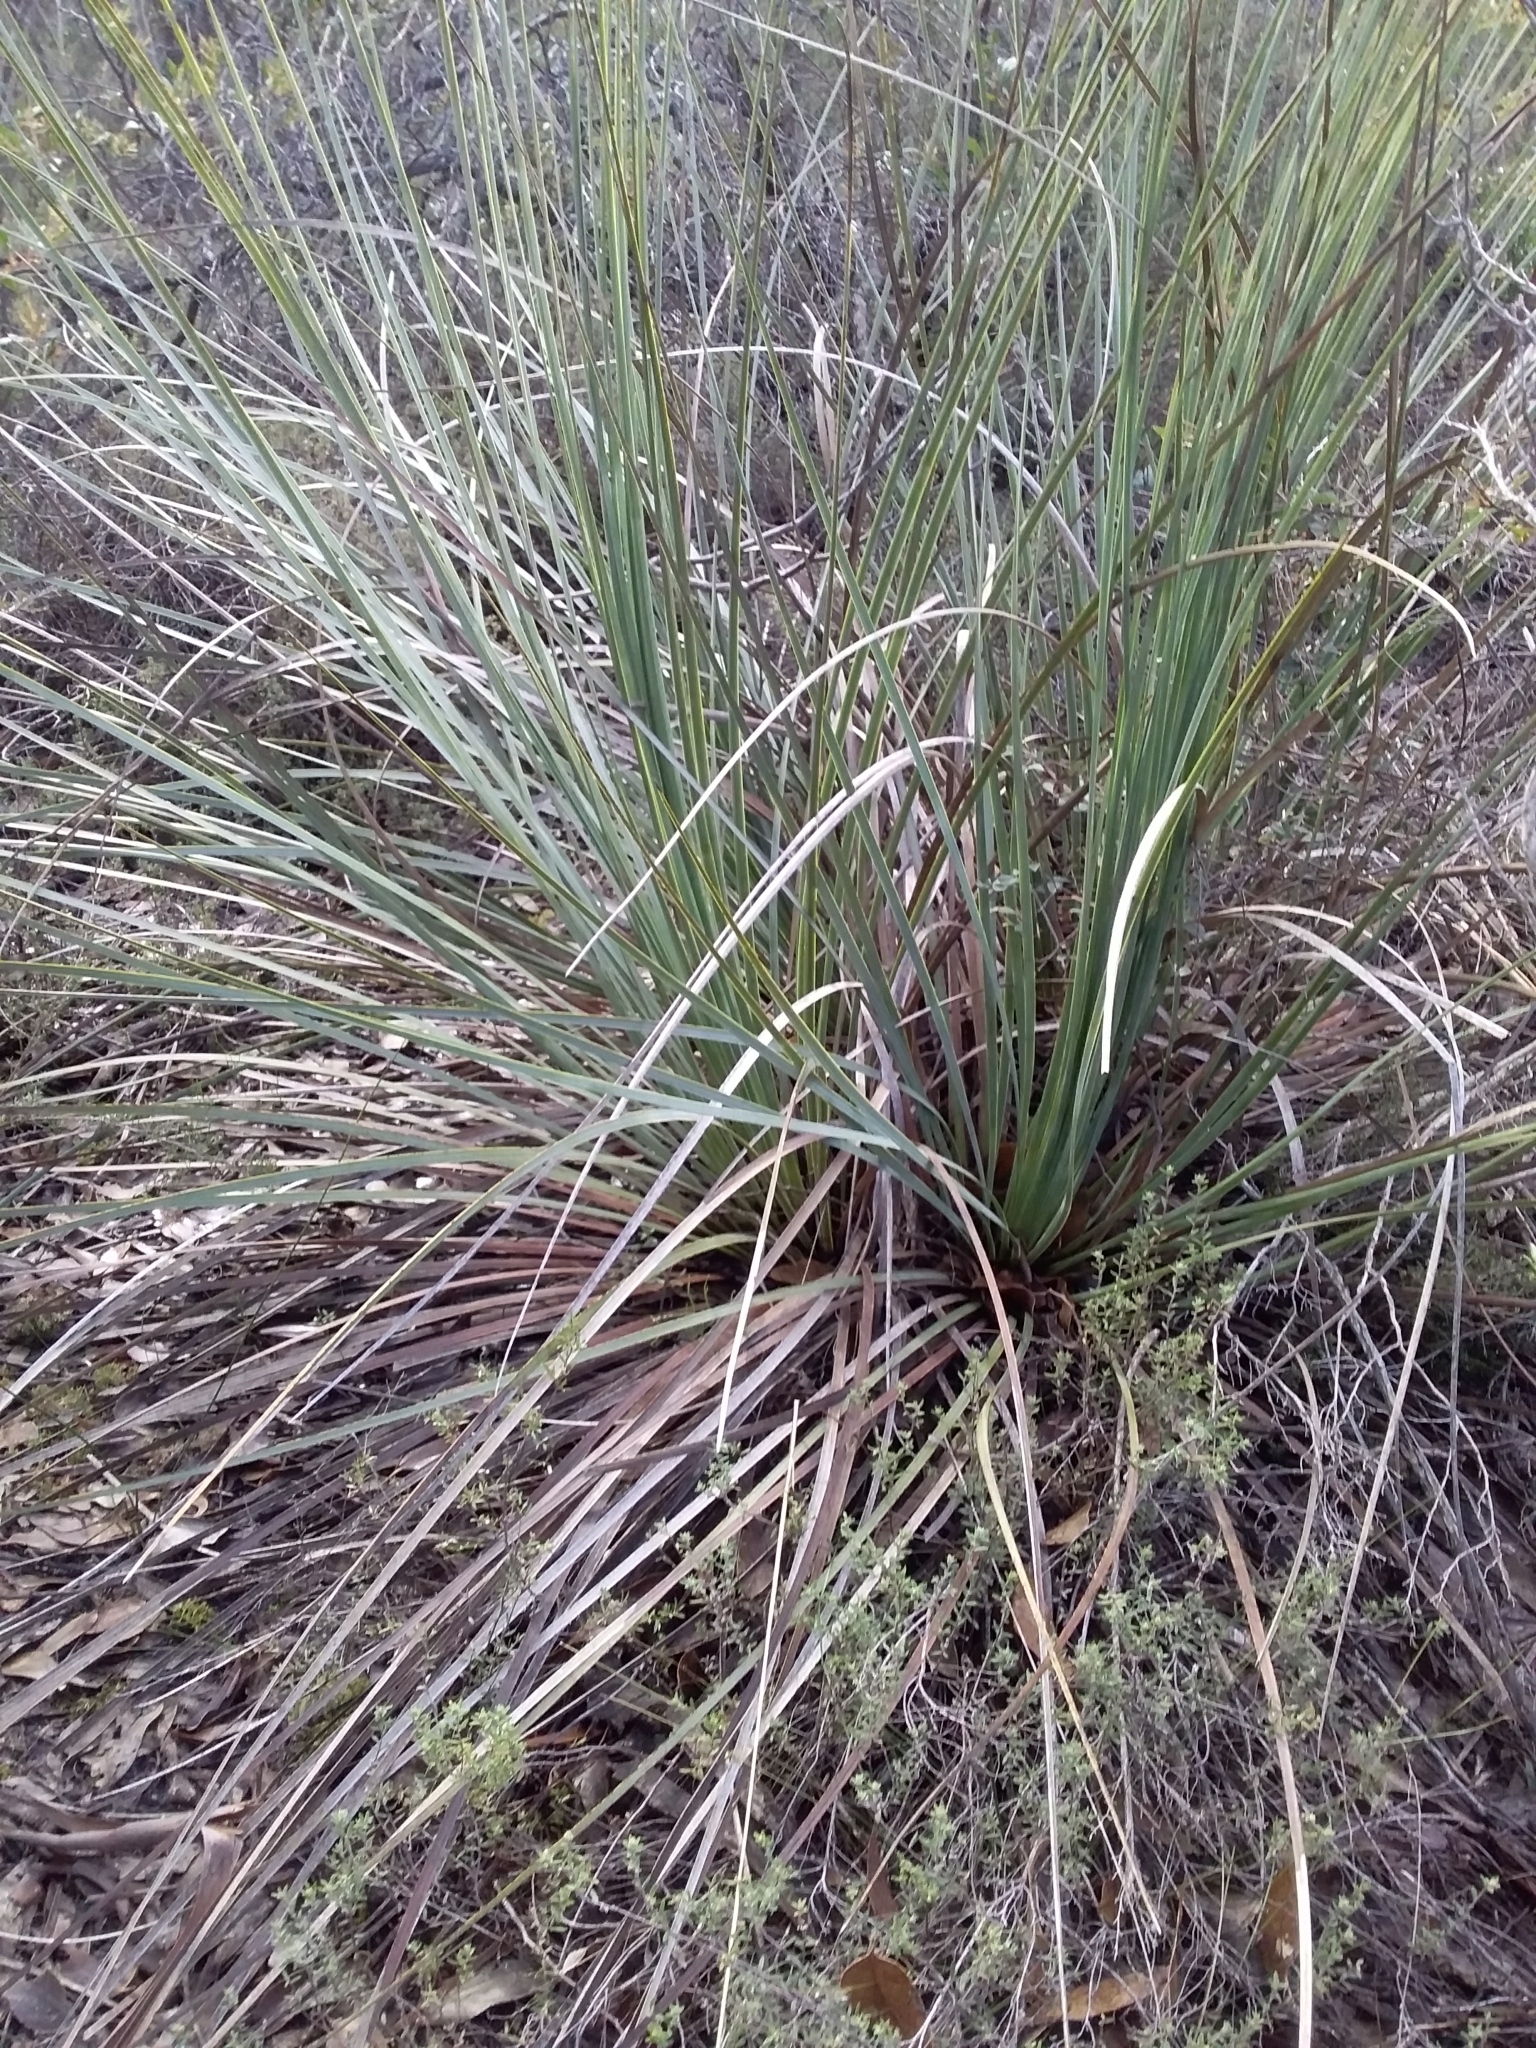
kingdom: Plantae
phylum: Tracheophyta
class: Liliopsida
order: Asparagales
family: Asphodelaceae
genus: Xanthorrhoea
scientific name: Xanthorrhoea semiplana
